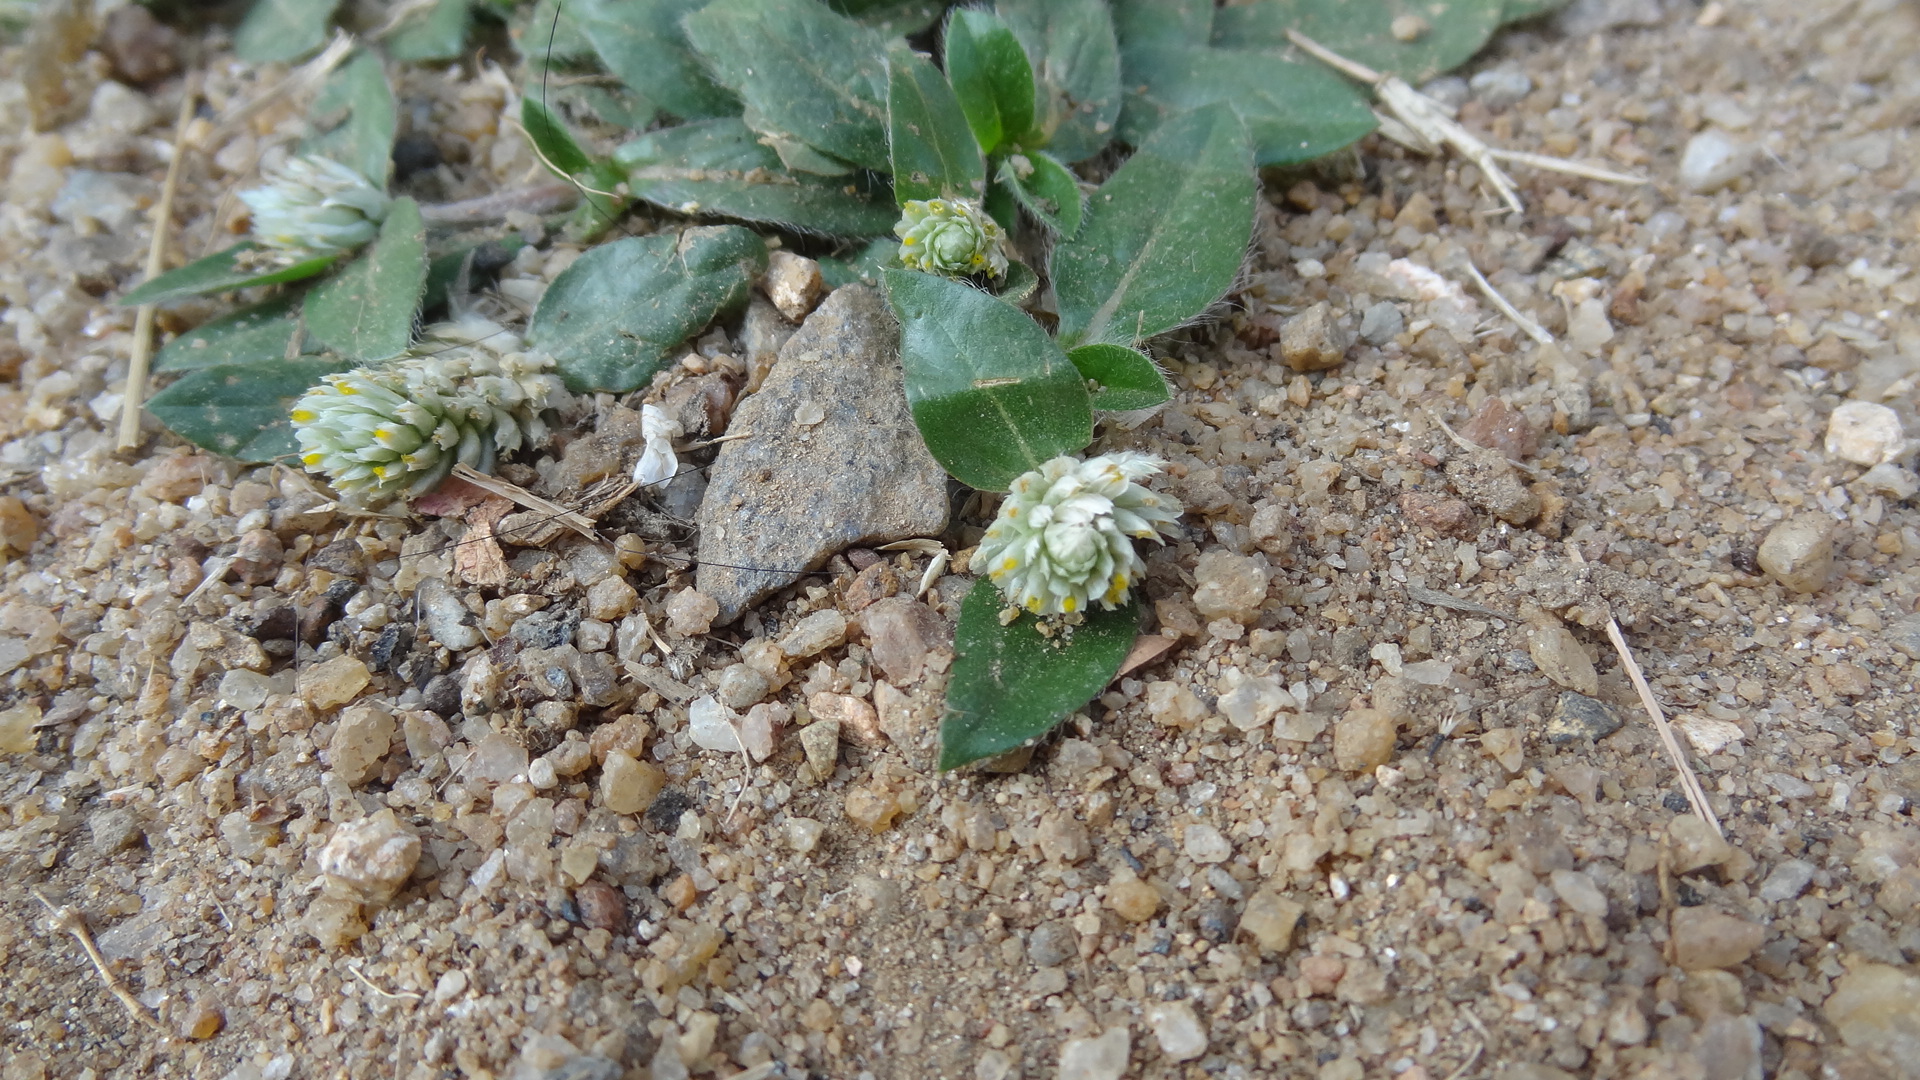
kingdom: Plantae
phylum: Tracheophyta
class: Magnoliopsida
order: Caryophyllales
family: Amaranthaceae
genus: Gomphrena
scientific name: Gomphrena serrata
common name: Arrasa con todo
